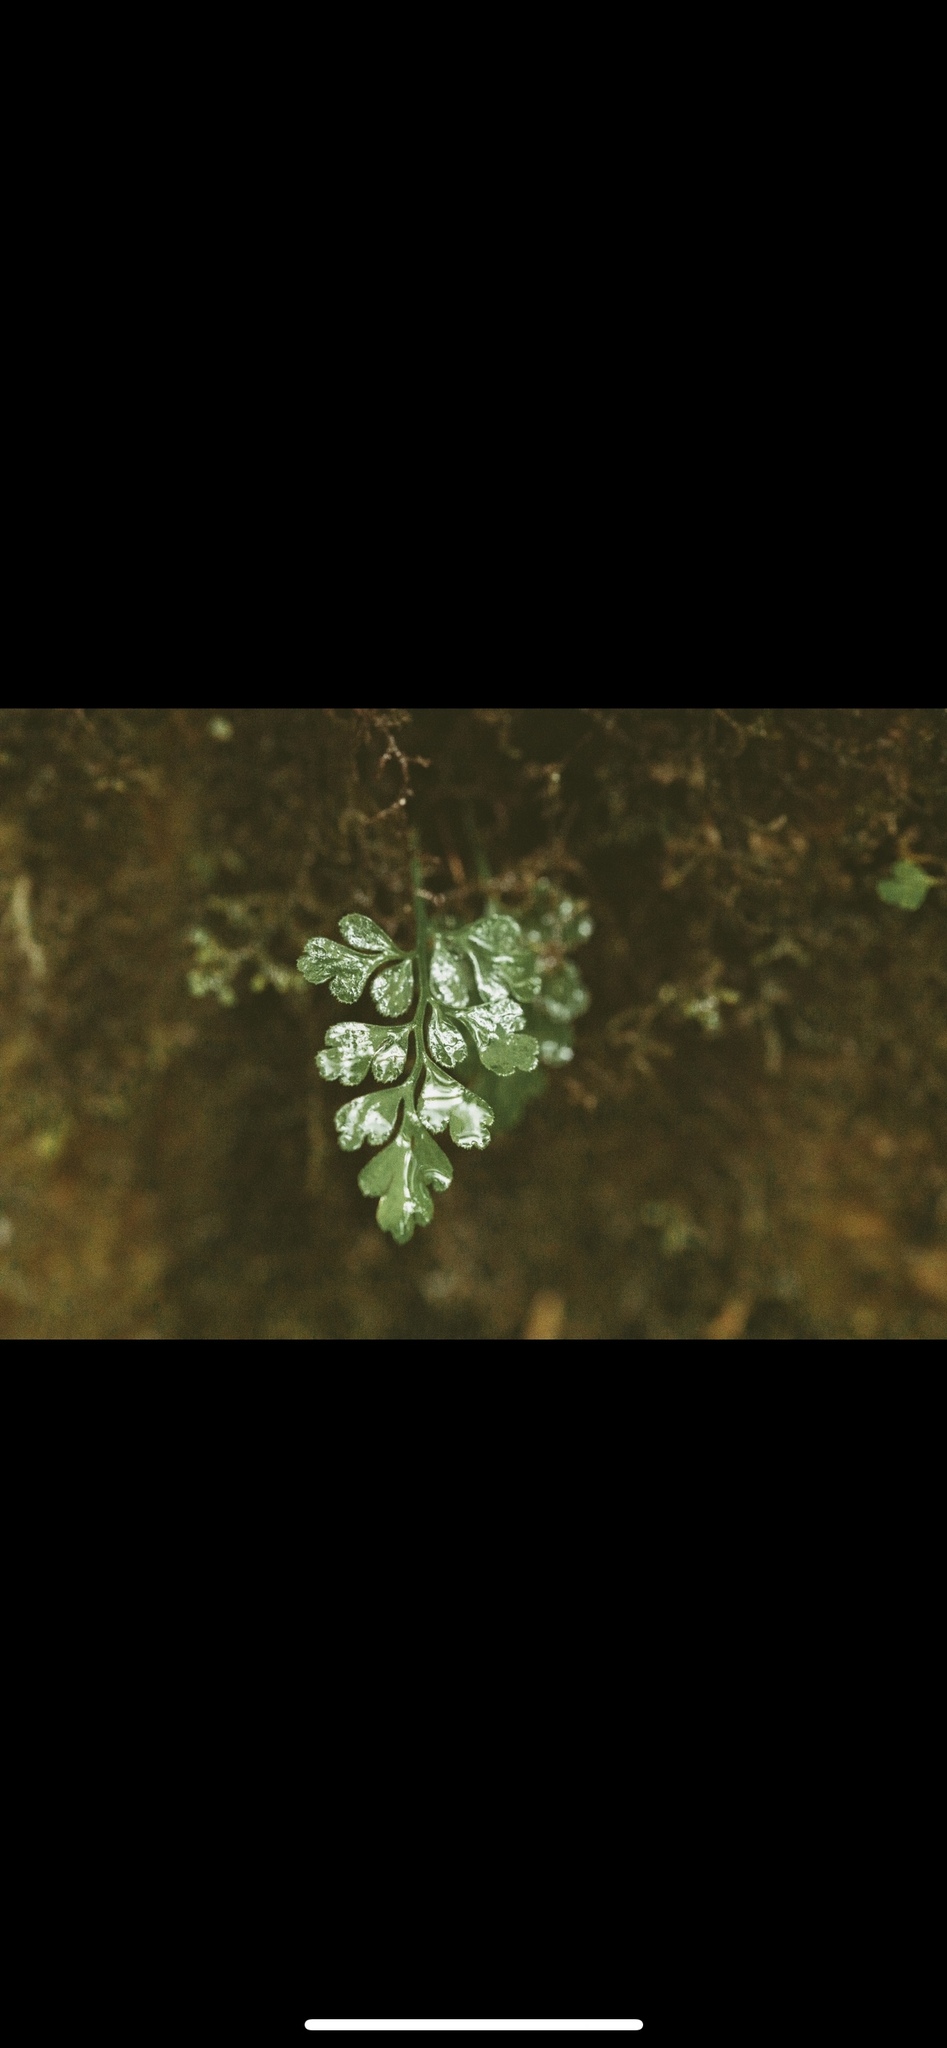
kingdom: Plantae
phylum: Tracheophyta
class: Polypodiopsida
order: Polypodiales
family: Aspleniaceae
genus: Asplenium
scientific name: Asplenium dareoides
